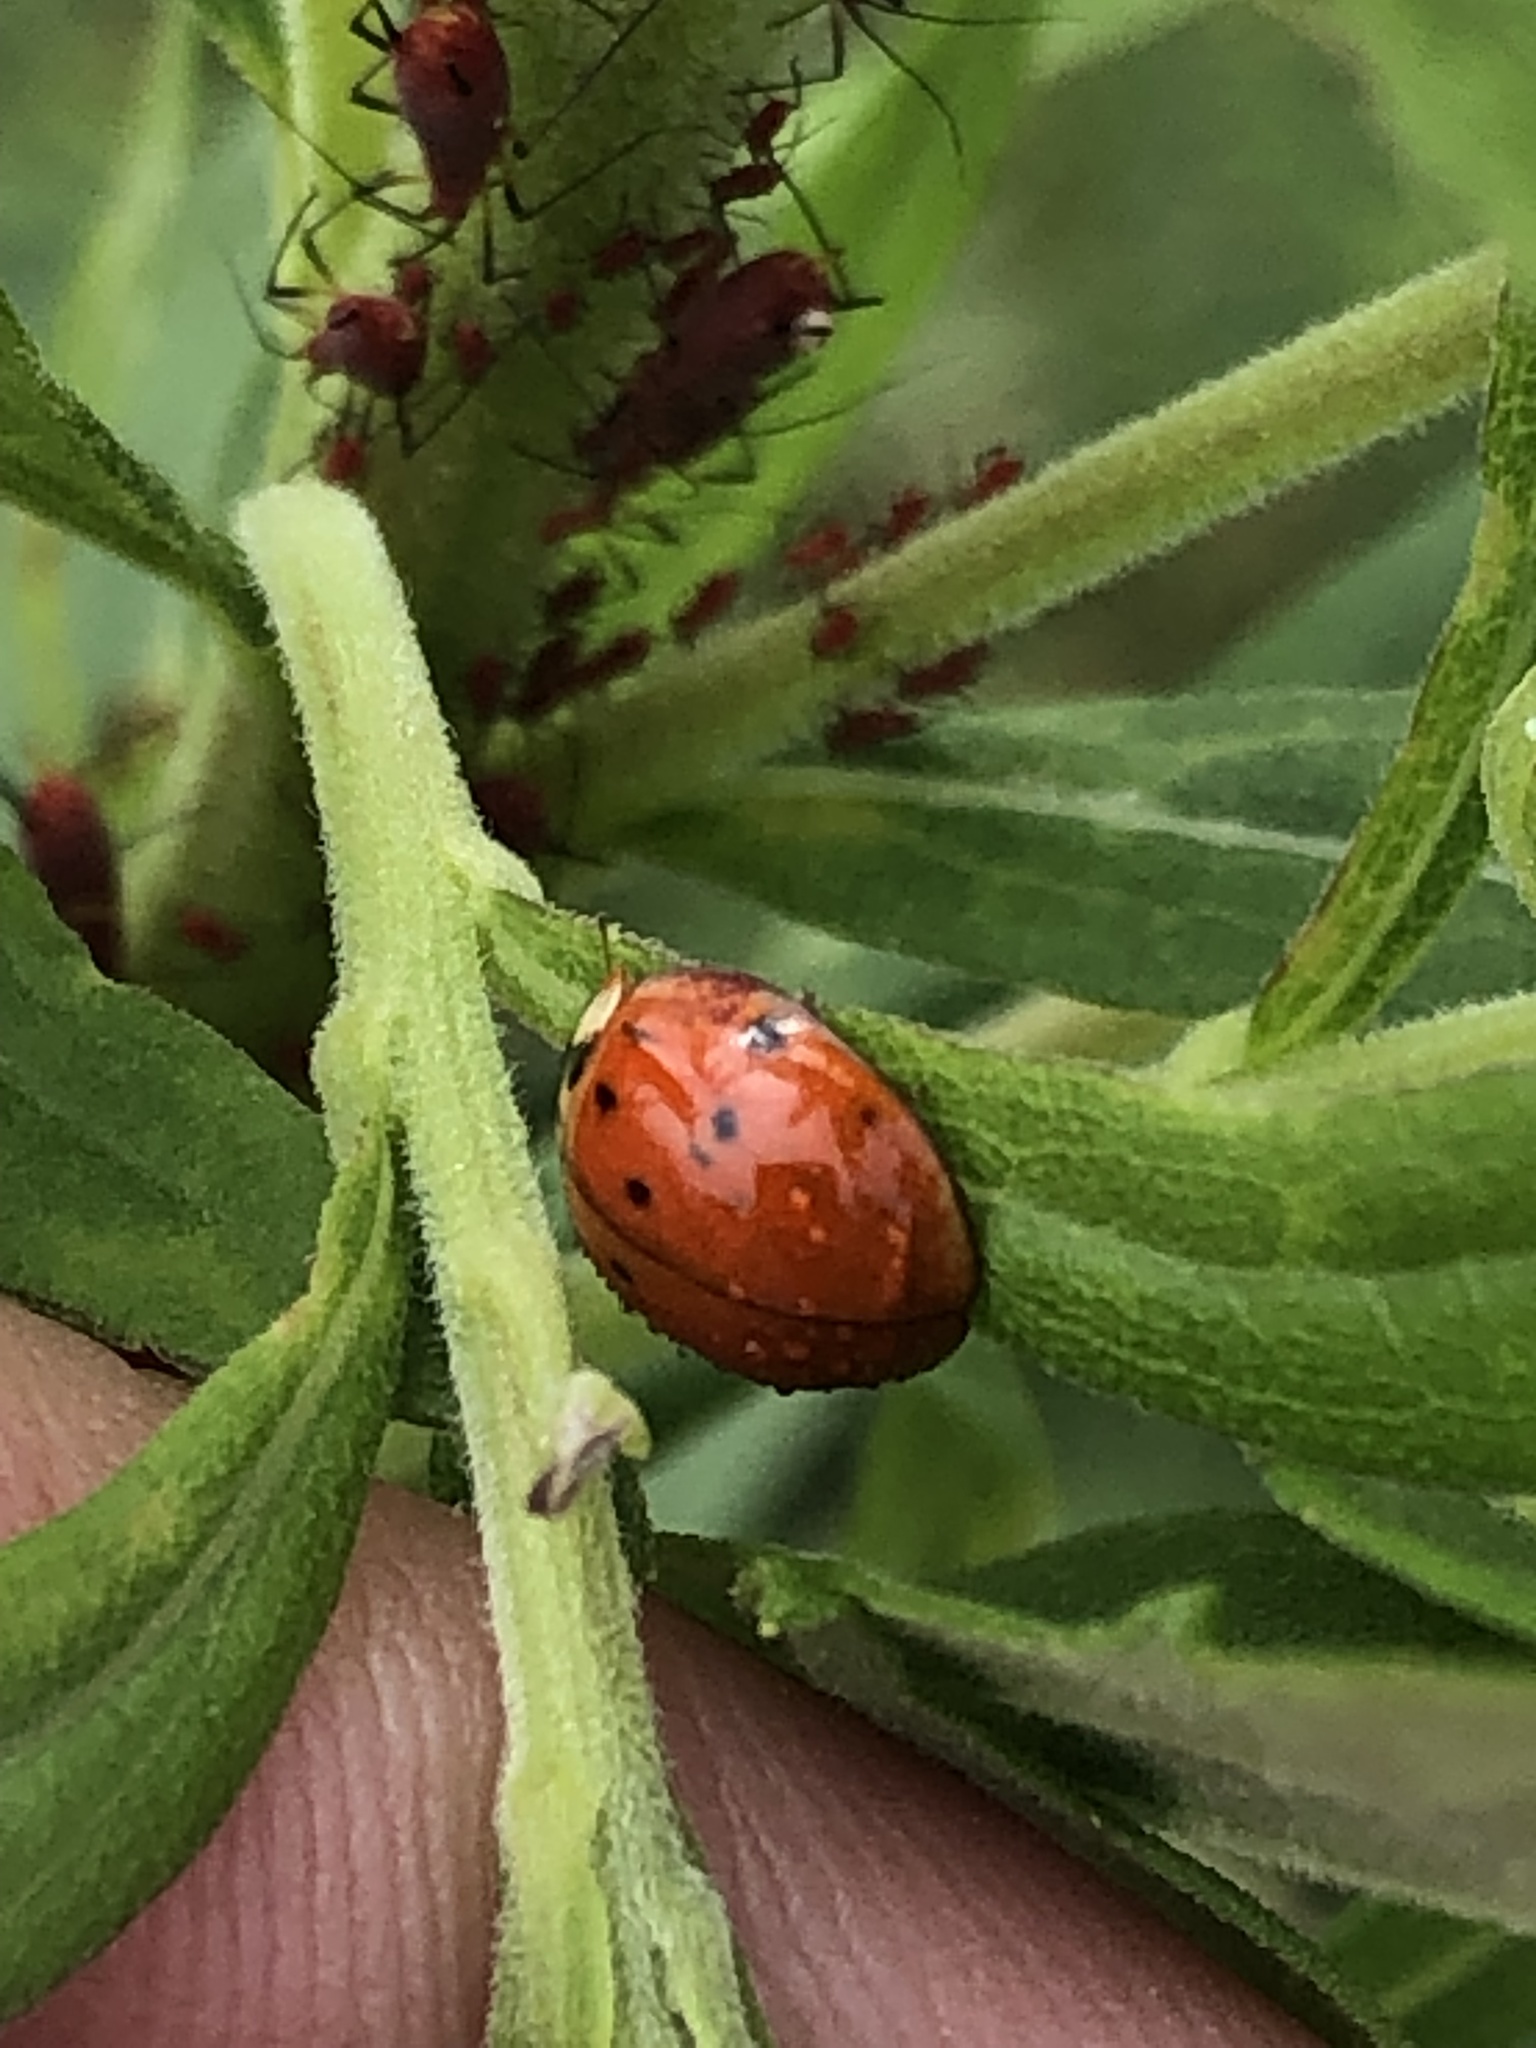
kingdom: Animalia
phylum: Arthropoda
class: Insecta
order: Coleoptera
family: Coccinellidae
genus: Harmonia
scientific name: Harmonia axyridis
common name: Harlequin ladybird
